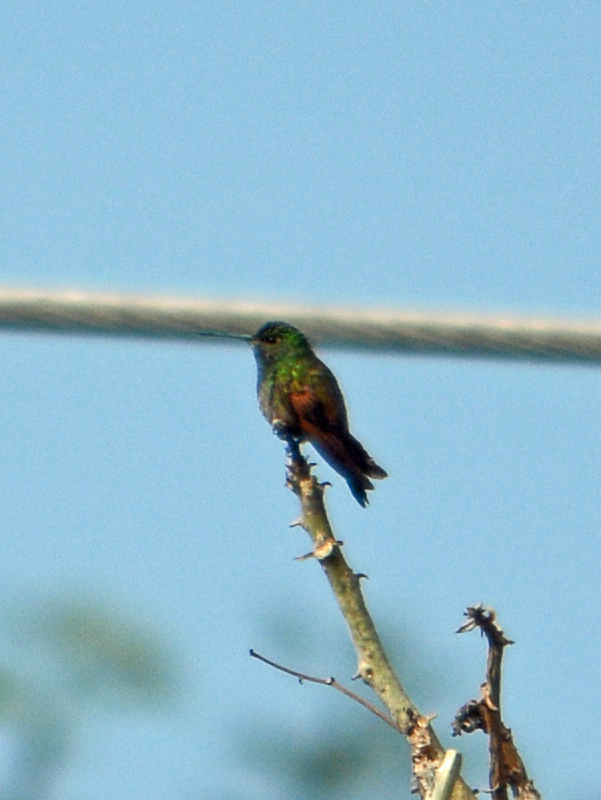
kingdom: Animalia
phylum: Chordata
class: Aves
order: Apodiformes
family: Trochilidae
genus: Saucerottia
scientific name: Saucerottia beryllina
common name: Berylline hummingbird
